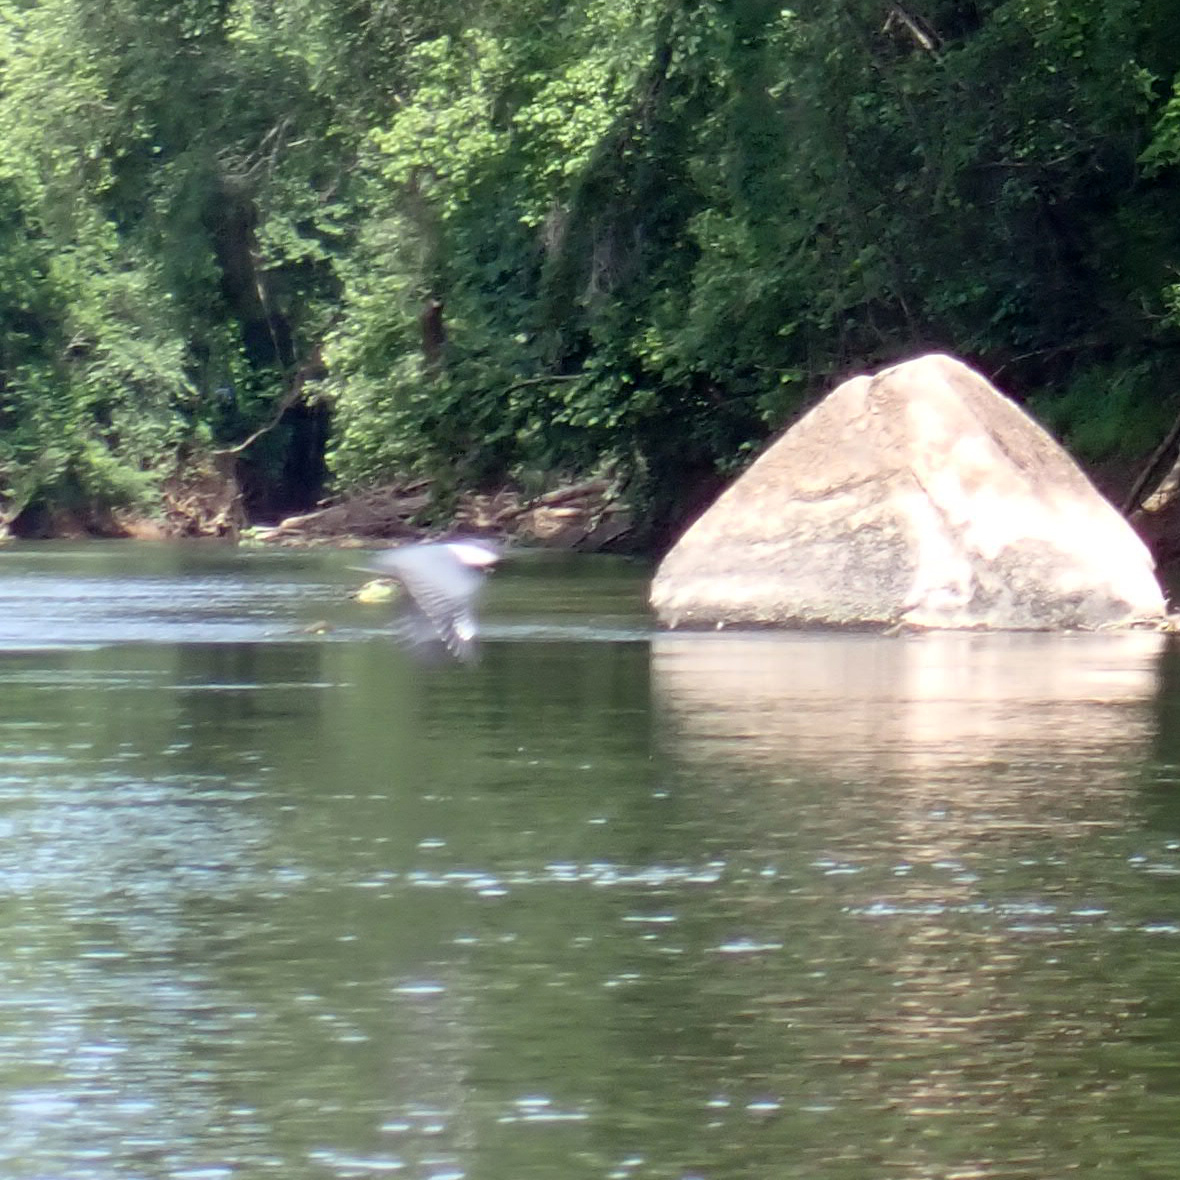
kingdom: Animalia
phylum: Chordata
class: Aves
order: Coraciiformes
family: Alcedinidae
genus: Megaceryle
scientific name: Megaceryle alcyon
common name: Belted kingfisher
